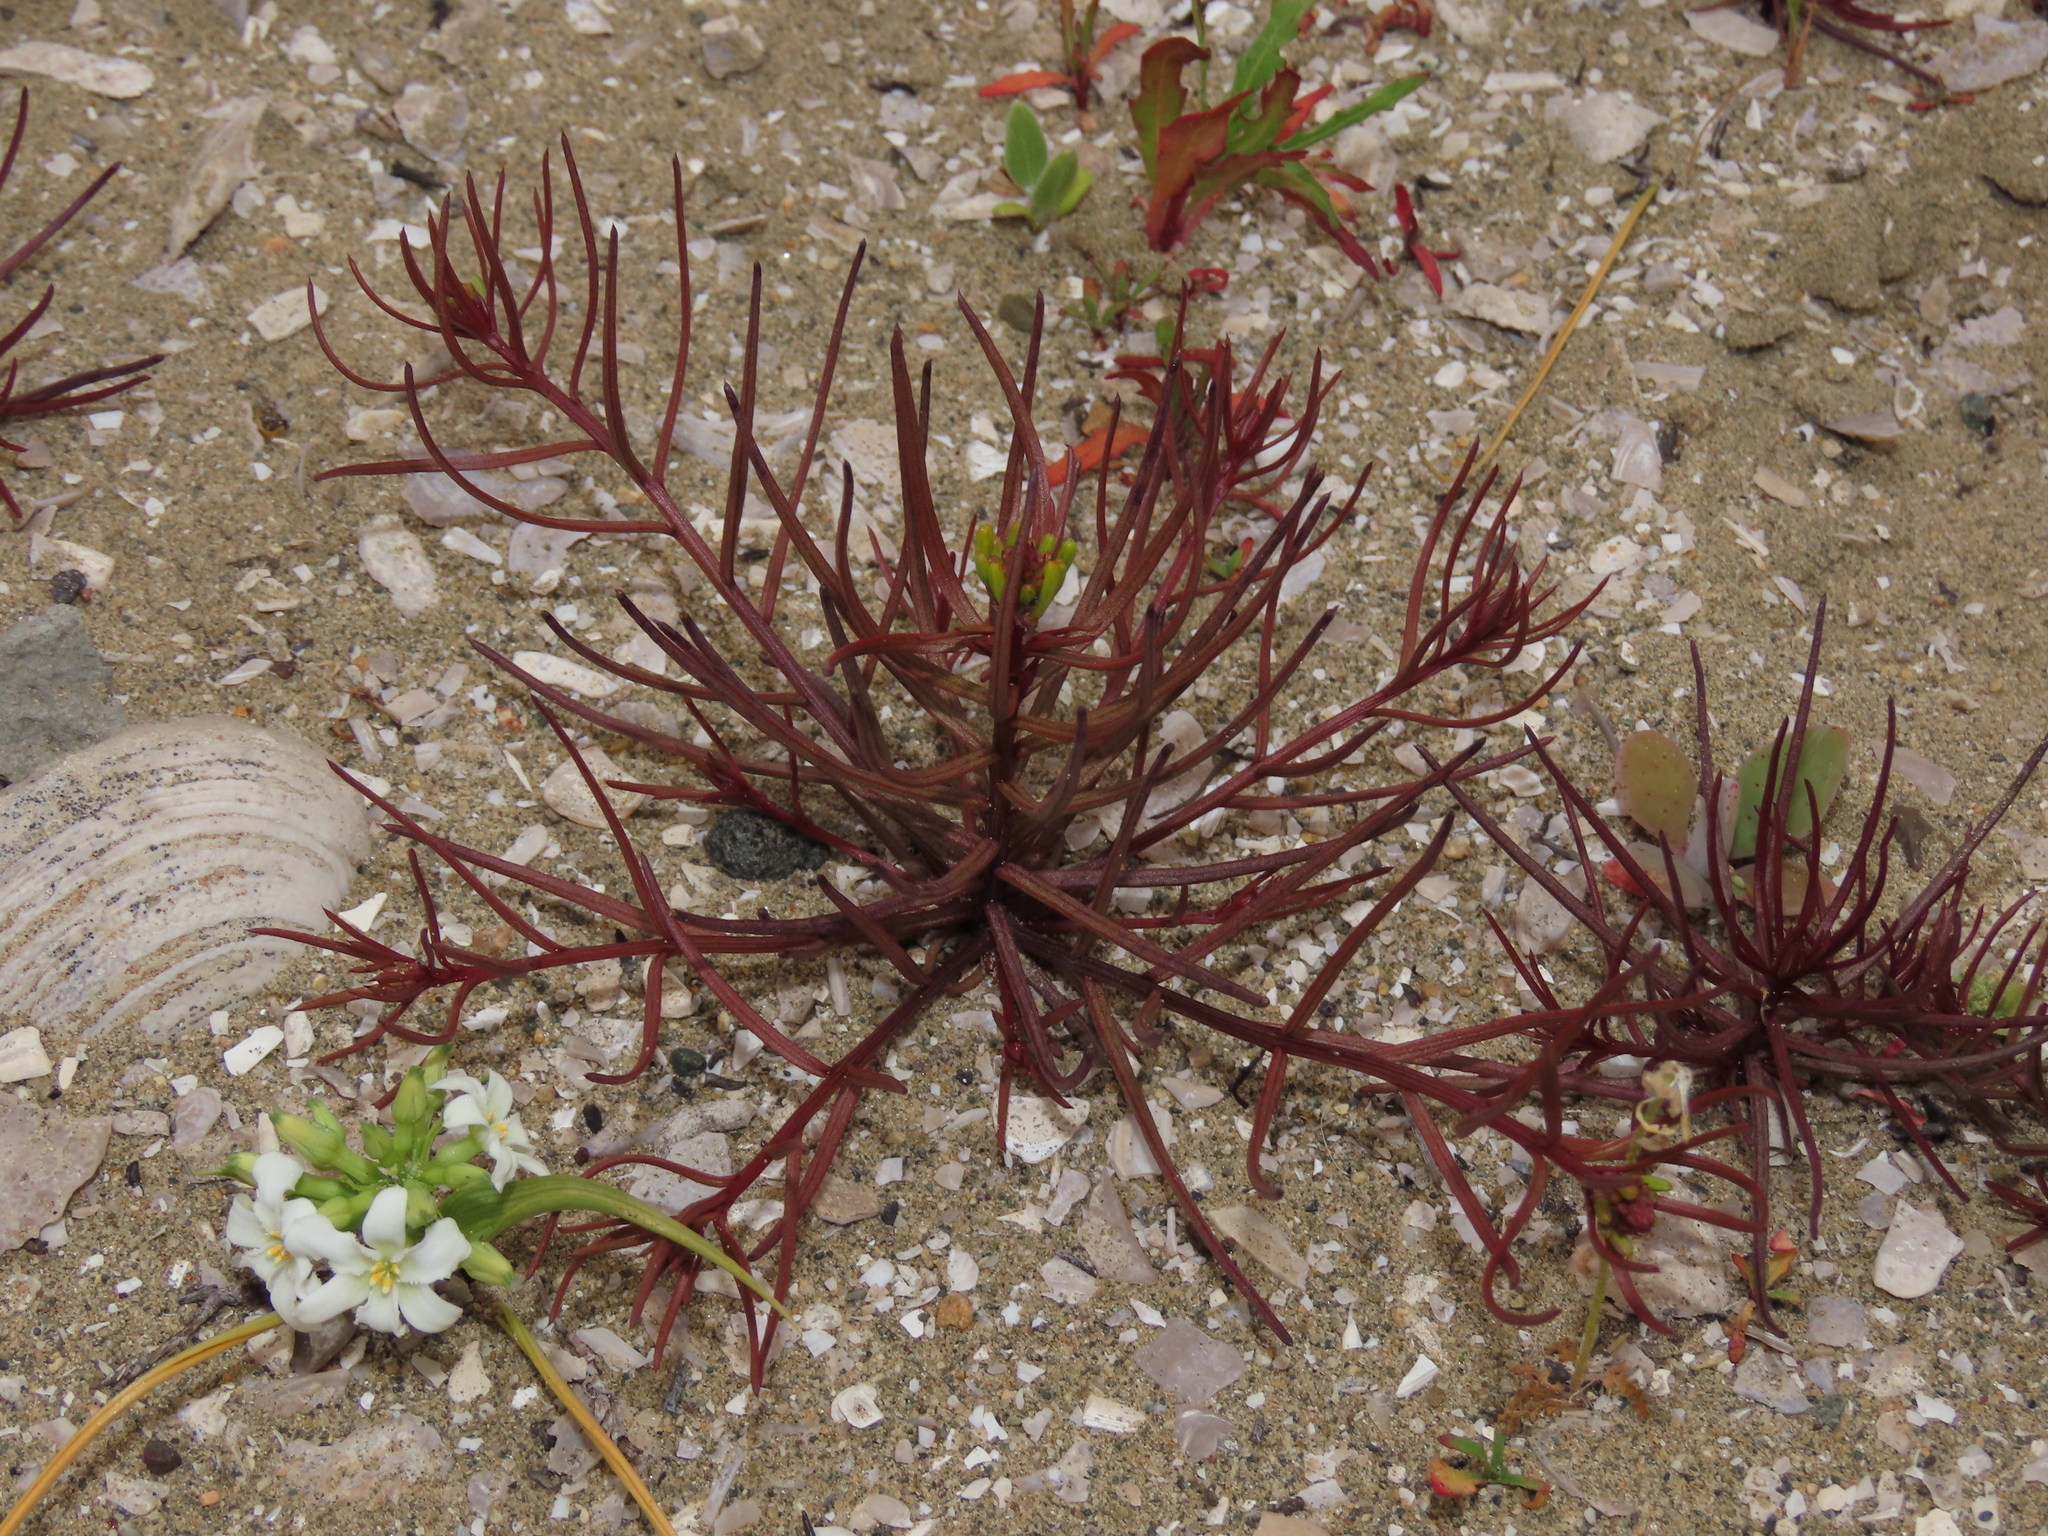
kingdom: Plantae
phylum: Tracheophyta
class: Magnoliopsida
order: Santalales
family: Schoepfiaceae
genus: Quinchamalium
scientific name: Quinchamalium chilense
